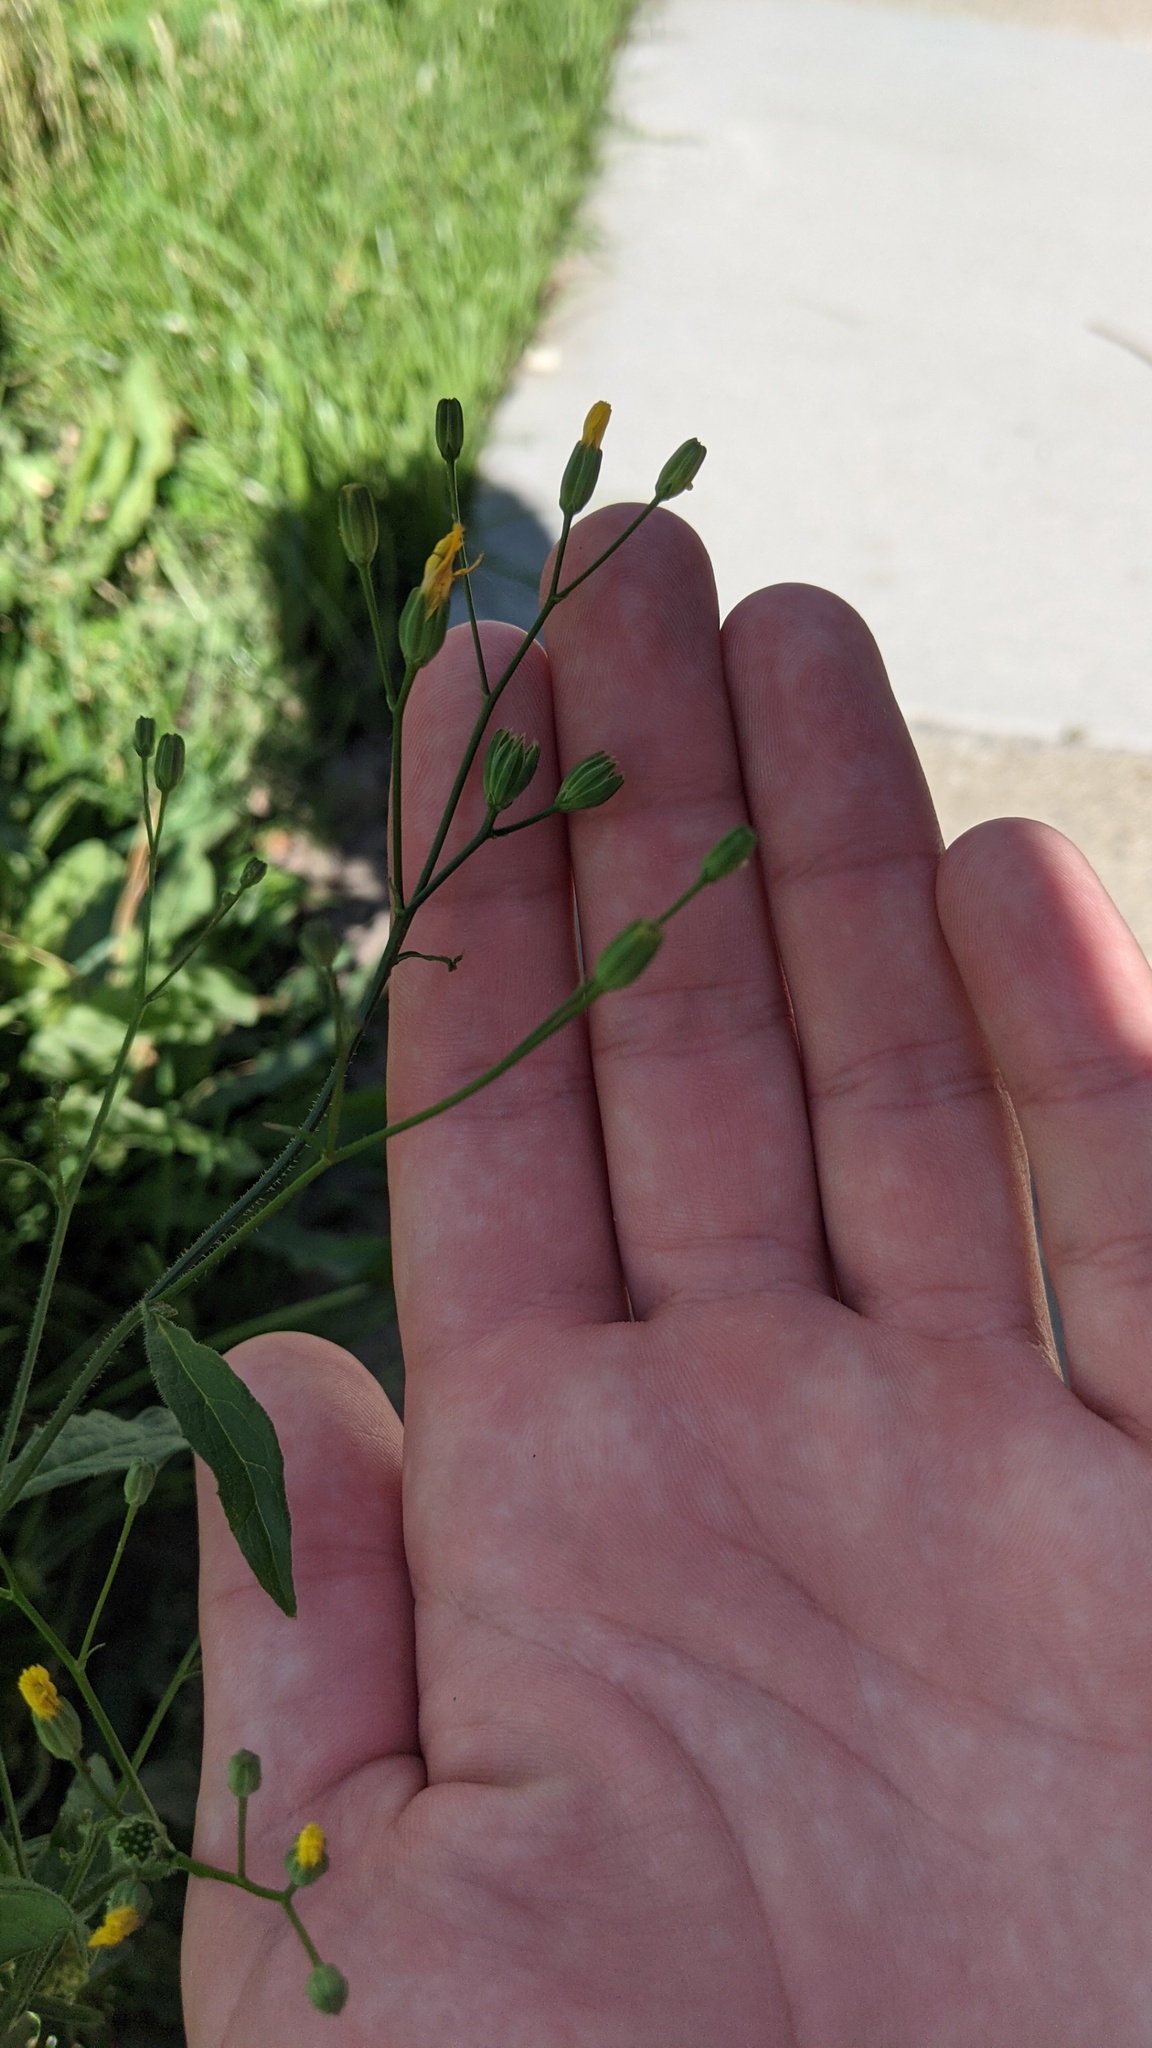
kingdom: Plantae
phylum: Tracheophyta
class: Magnoliopsida
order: Asterales
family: Asteraceae
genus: Lapsana
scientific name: Lapsana communis
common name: Nipplewort
